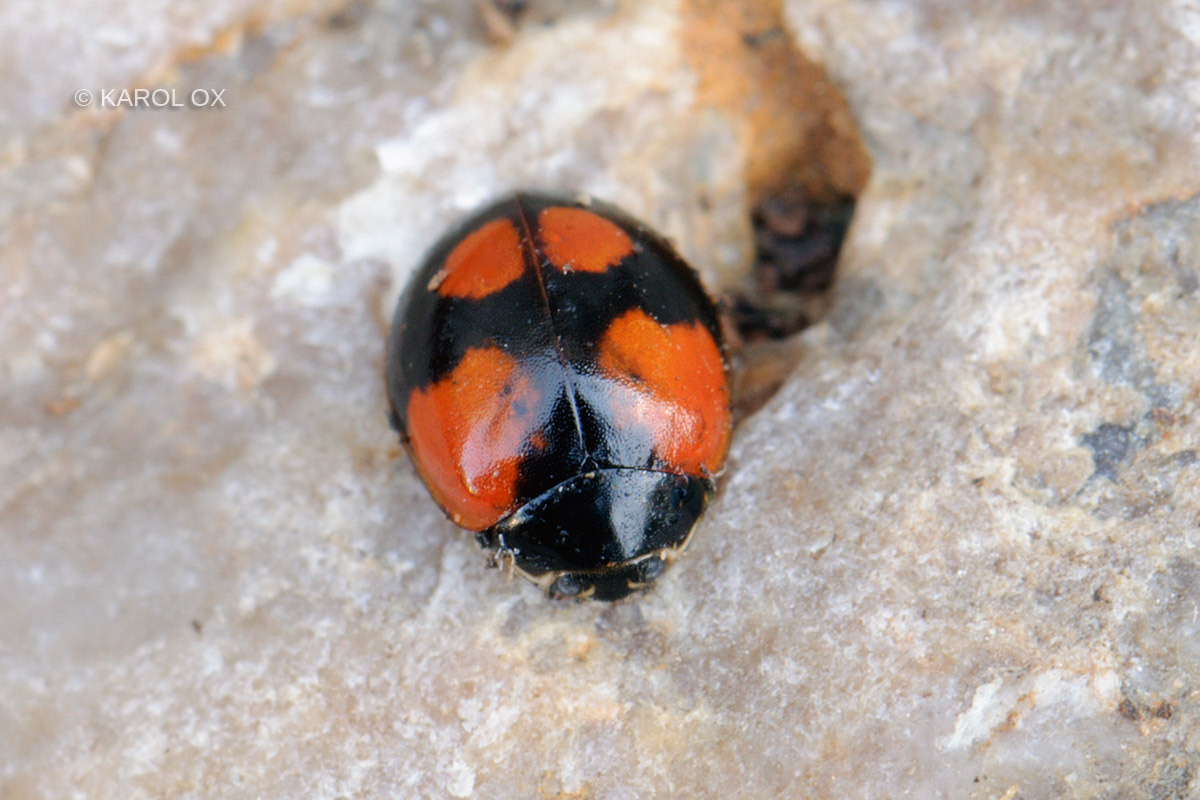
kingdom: Animalia
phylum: Arthropoda
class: Insecta
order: Coleoptera
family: Coccinellidae
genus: Adalia
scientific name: Adalia bipunctata
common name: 2-spot ladybird
